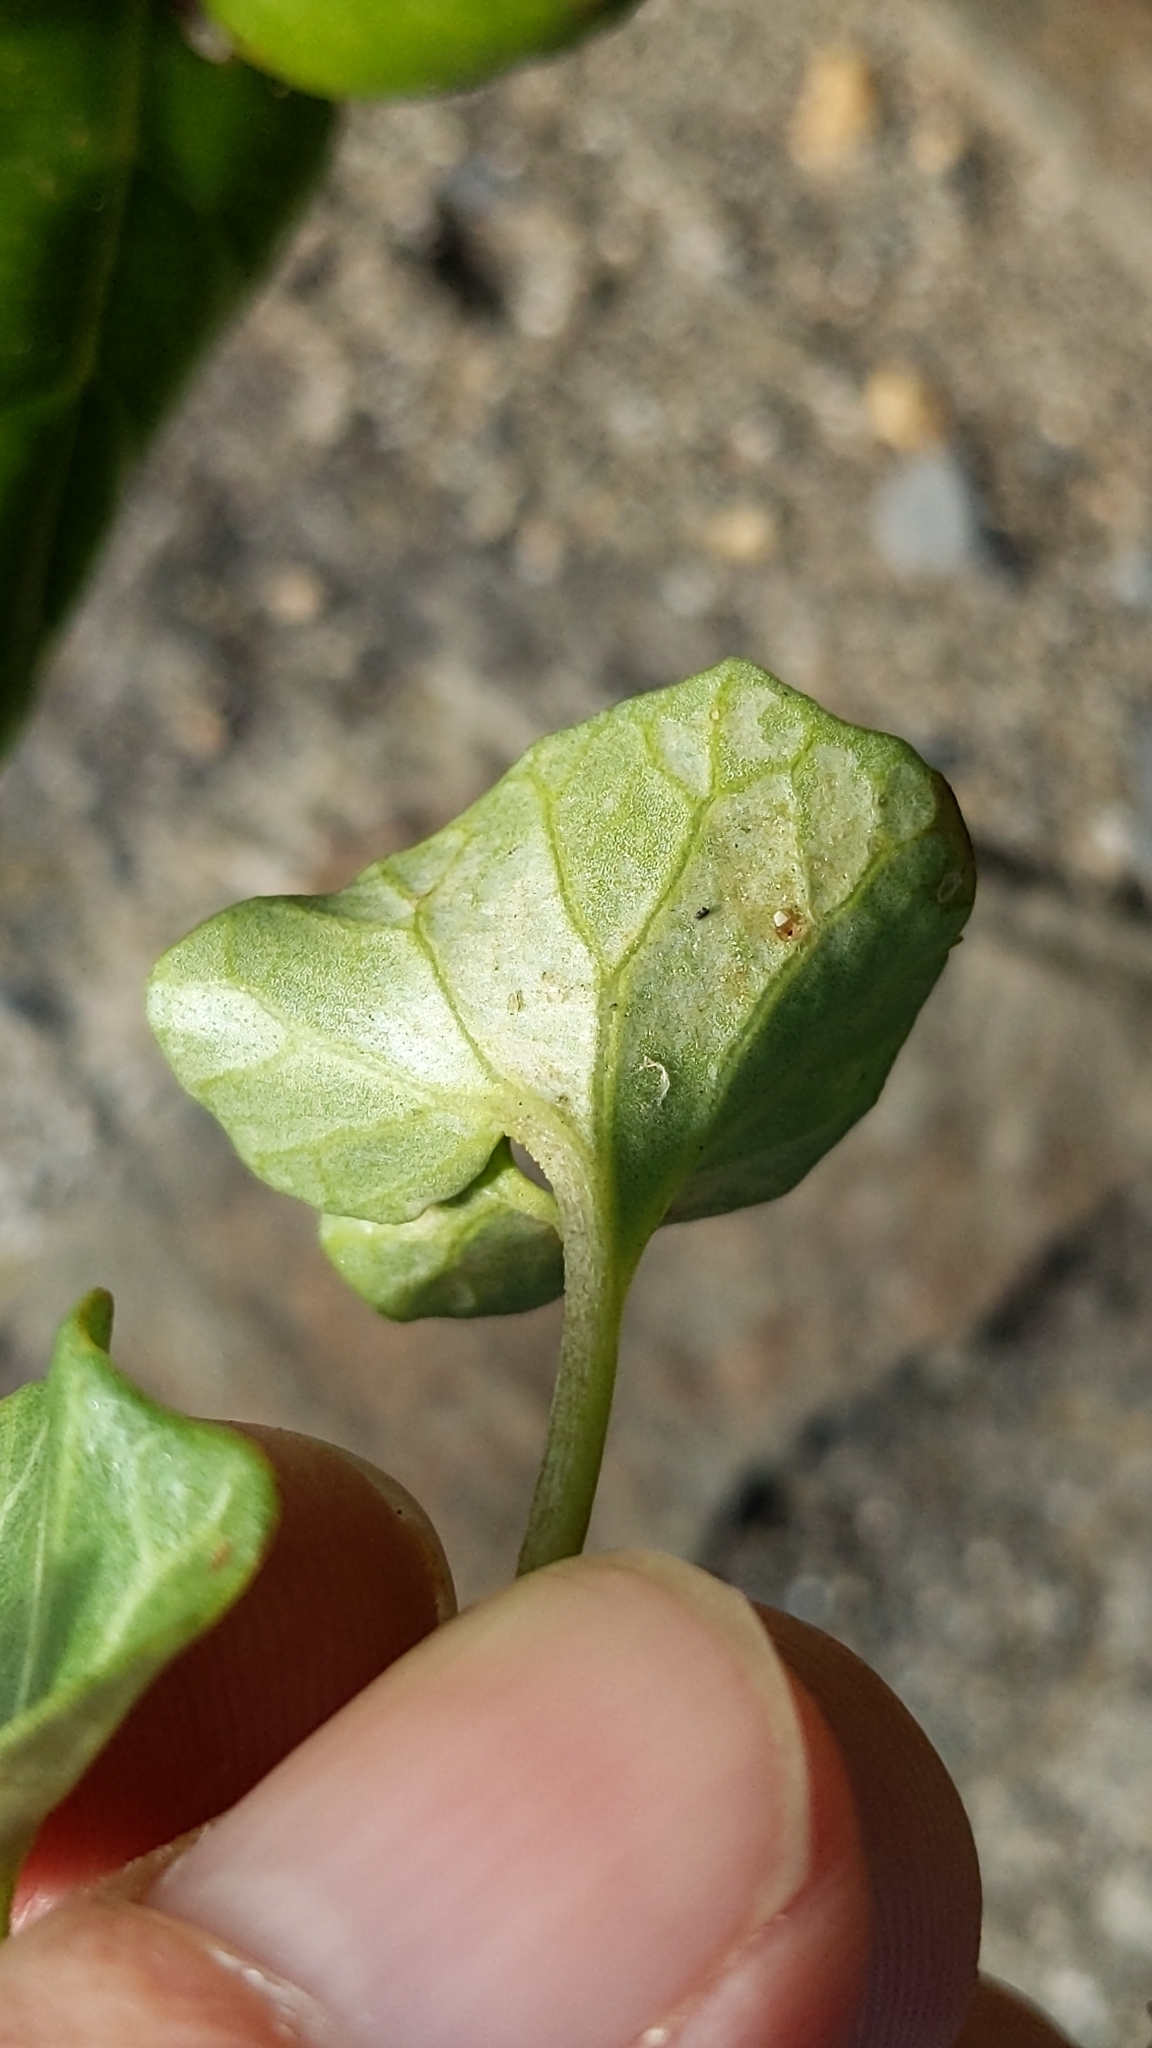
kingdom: Plantae
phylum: Tracheophyta
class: Magnoliopsida
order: Solanales
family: Convolvulaceae
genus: Calystegia
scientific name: Calystegia soldanella
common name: Sea bindweed
